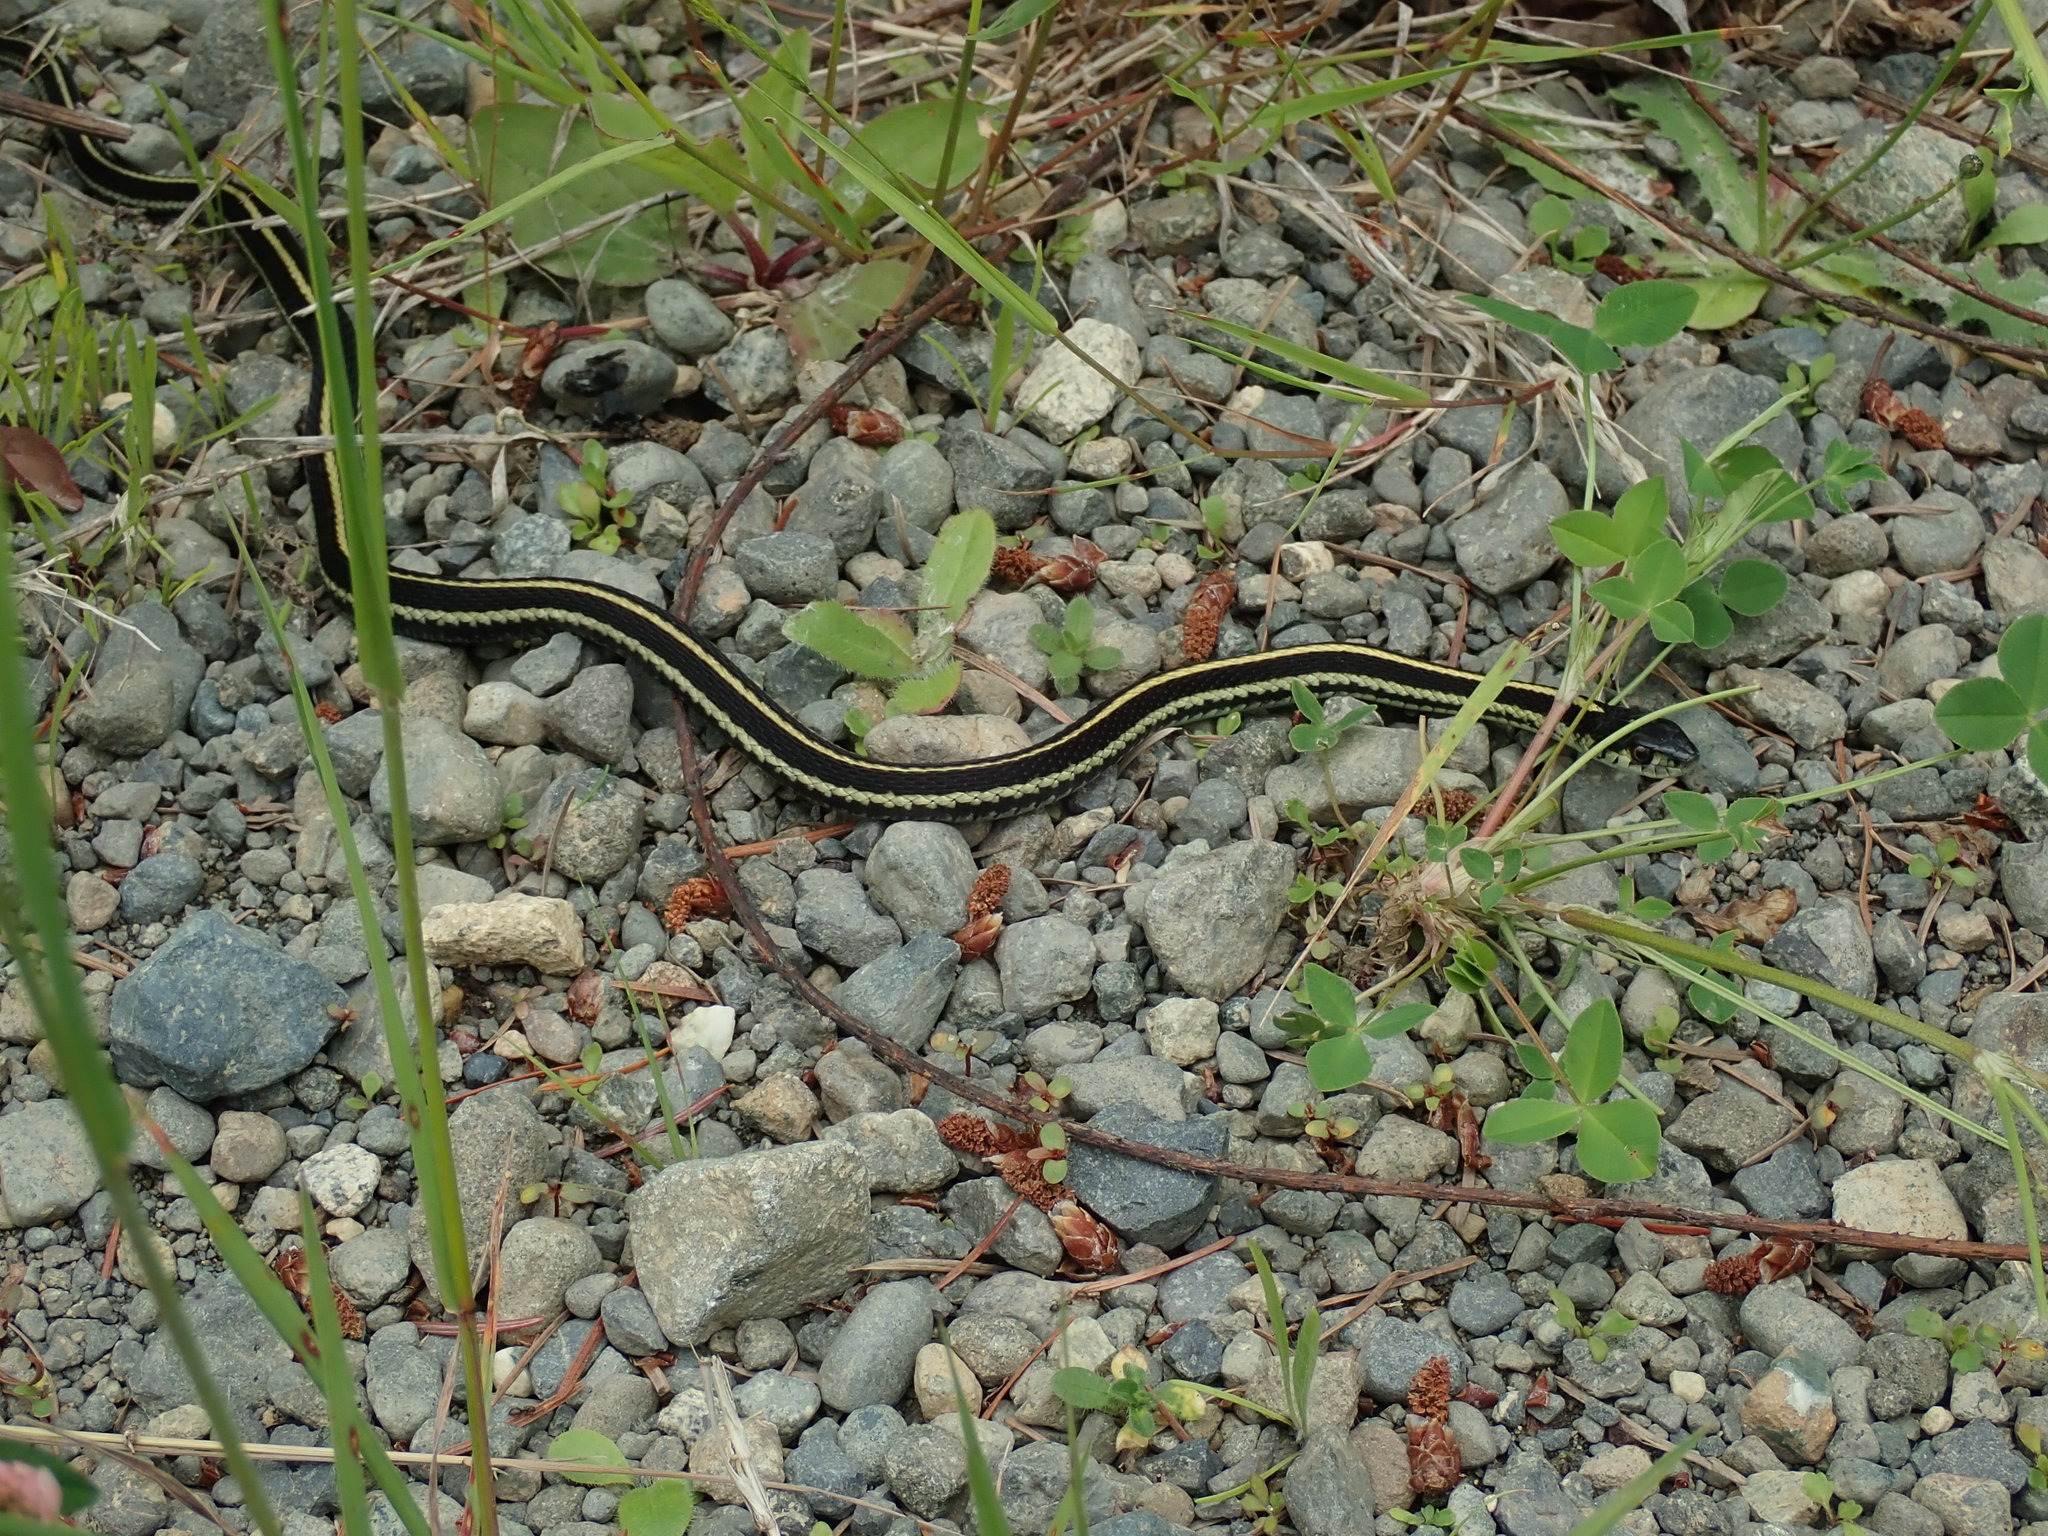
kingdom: Animalia
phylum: Chordata
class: Squamata
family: Colubridae
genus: Thamnophis
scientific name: Thamnophis sirtalis
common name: Common garter snake
